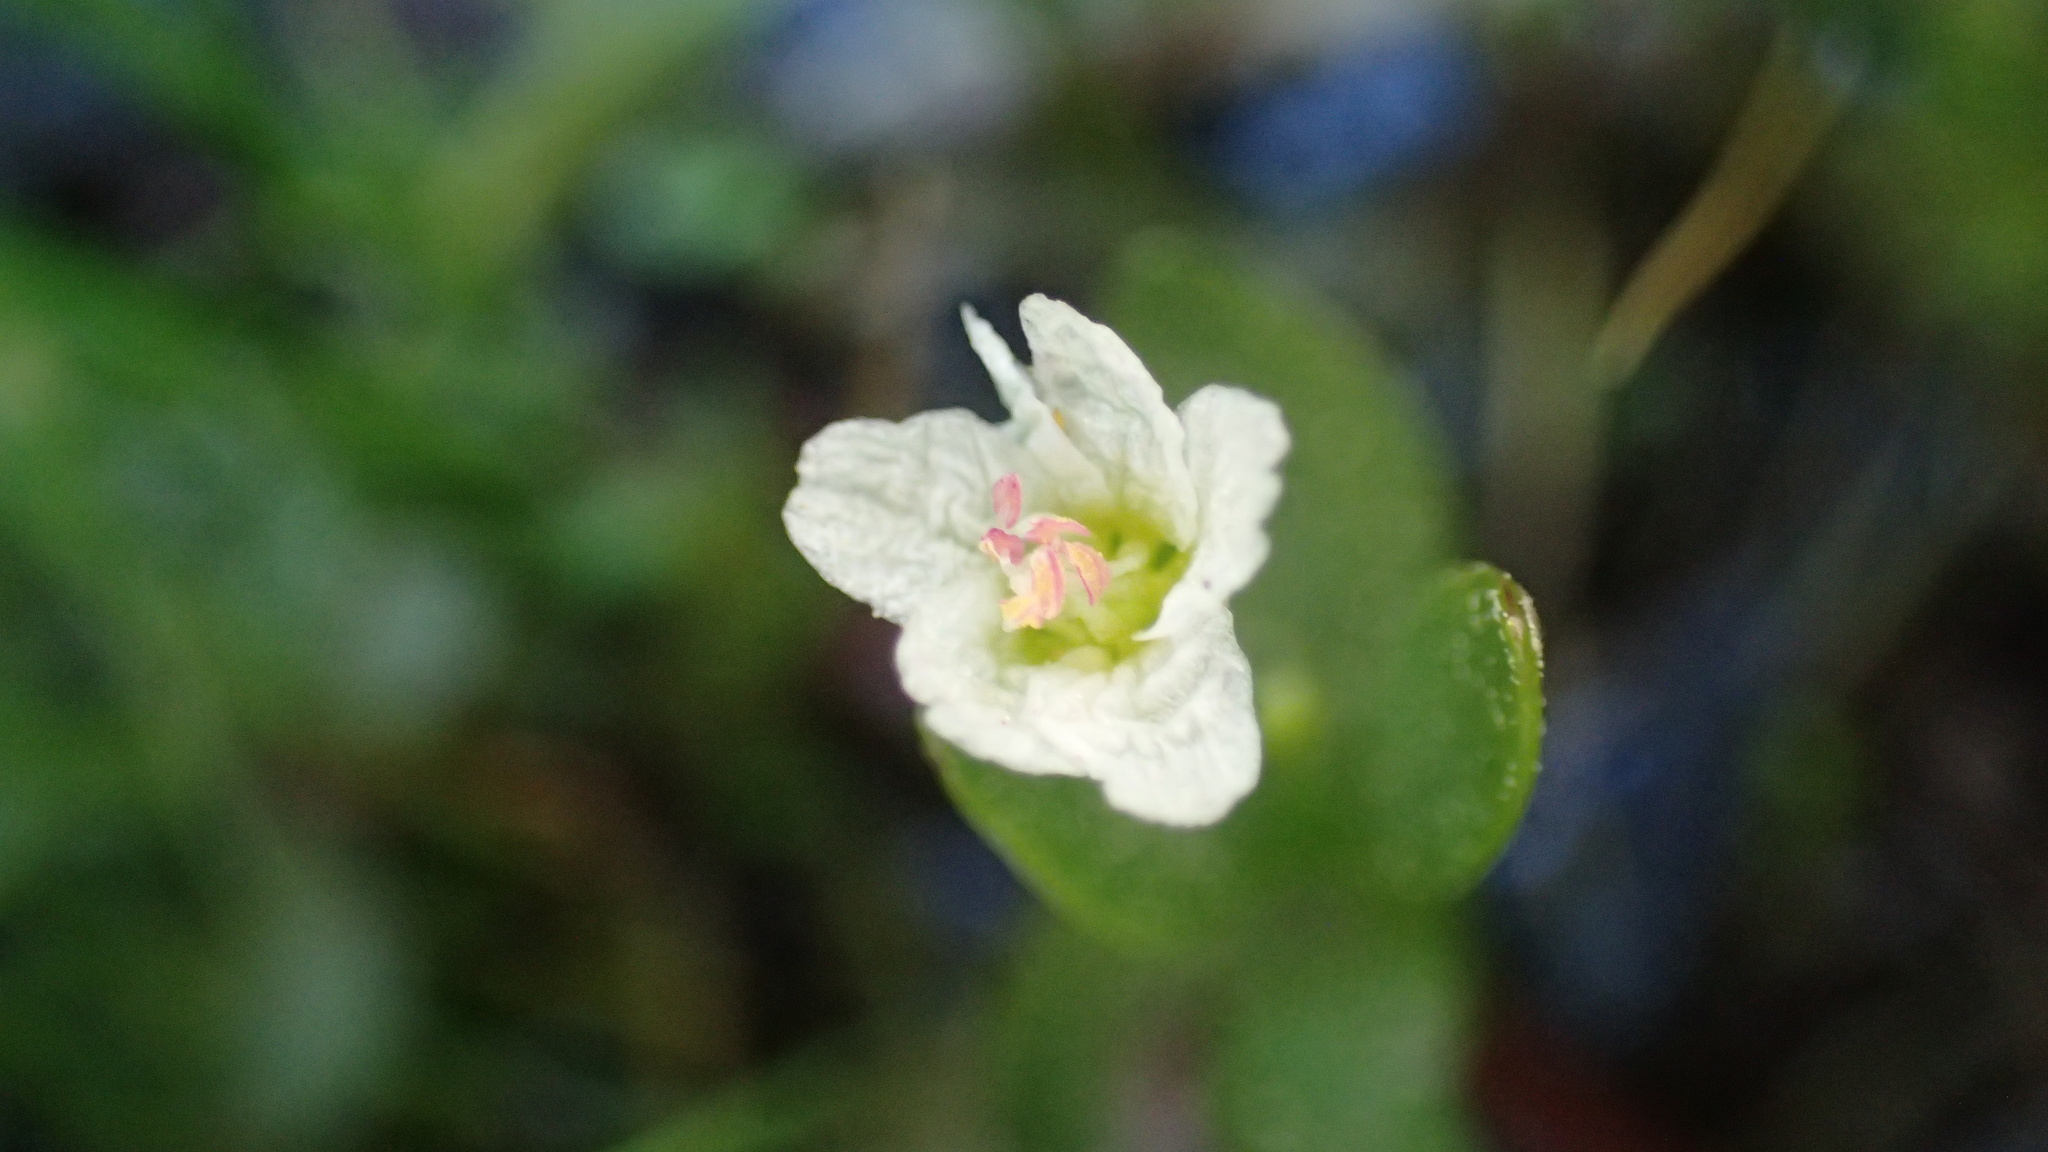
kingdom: Plantae
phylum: Tracheophyta
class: Magnoliopsida
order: Caryophyllales
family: Montiaceae
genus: Montia
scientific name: Montia chamissoi
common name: Chamisso's candyflower
